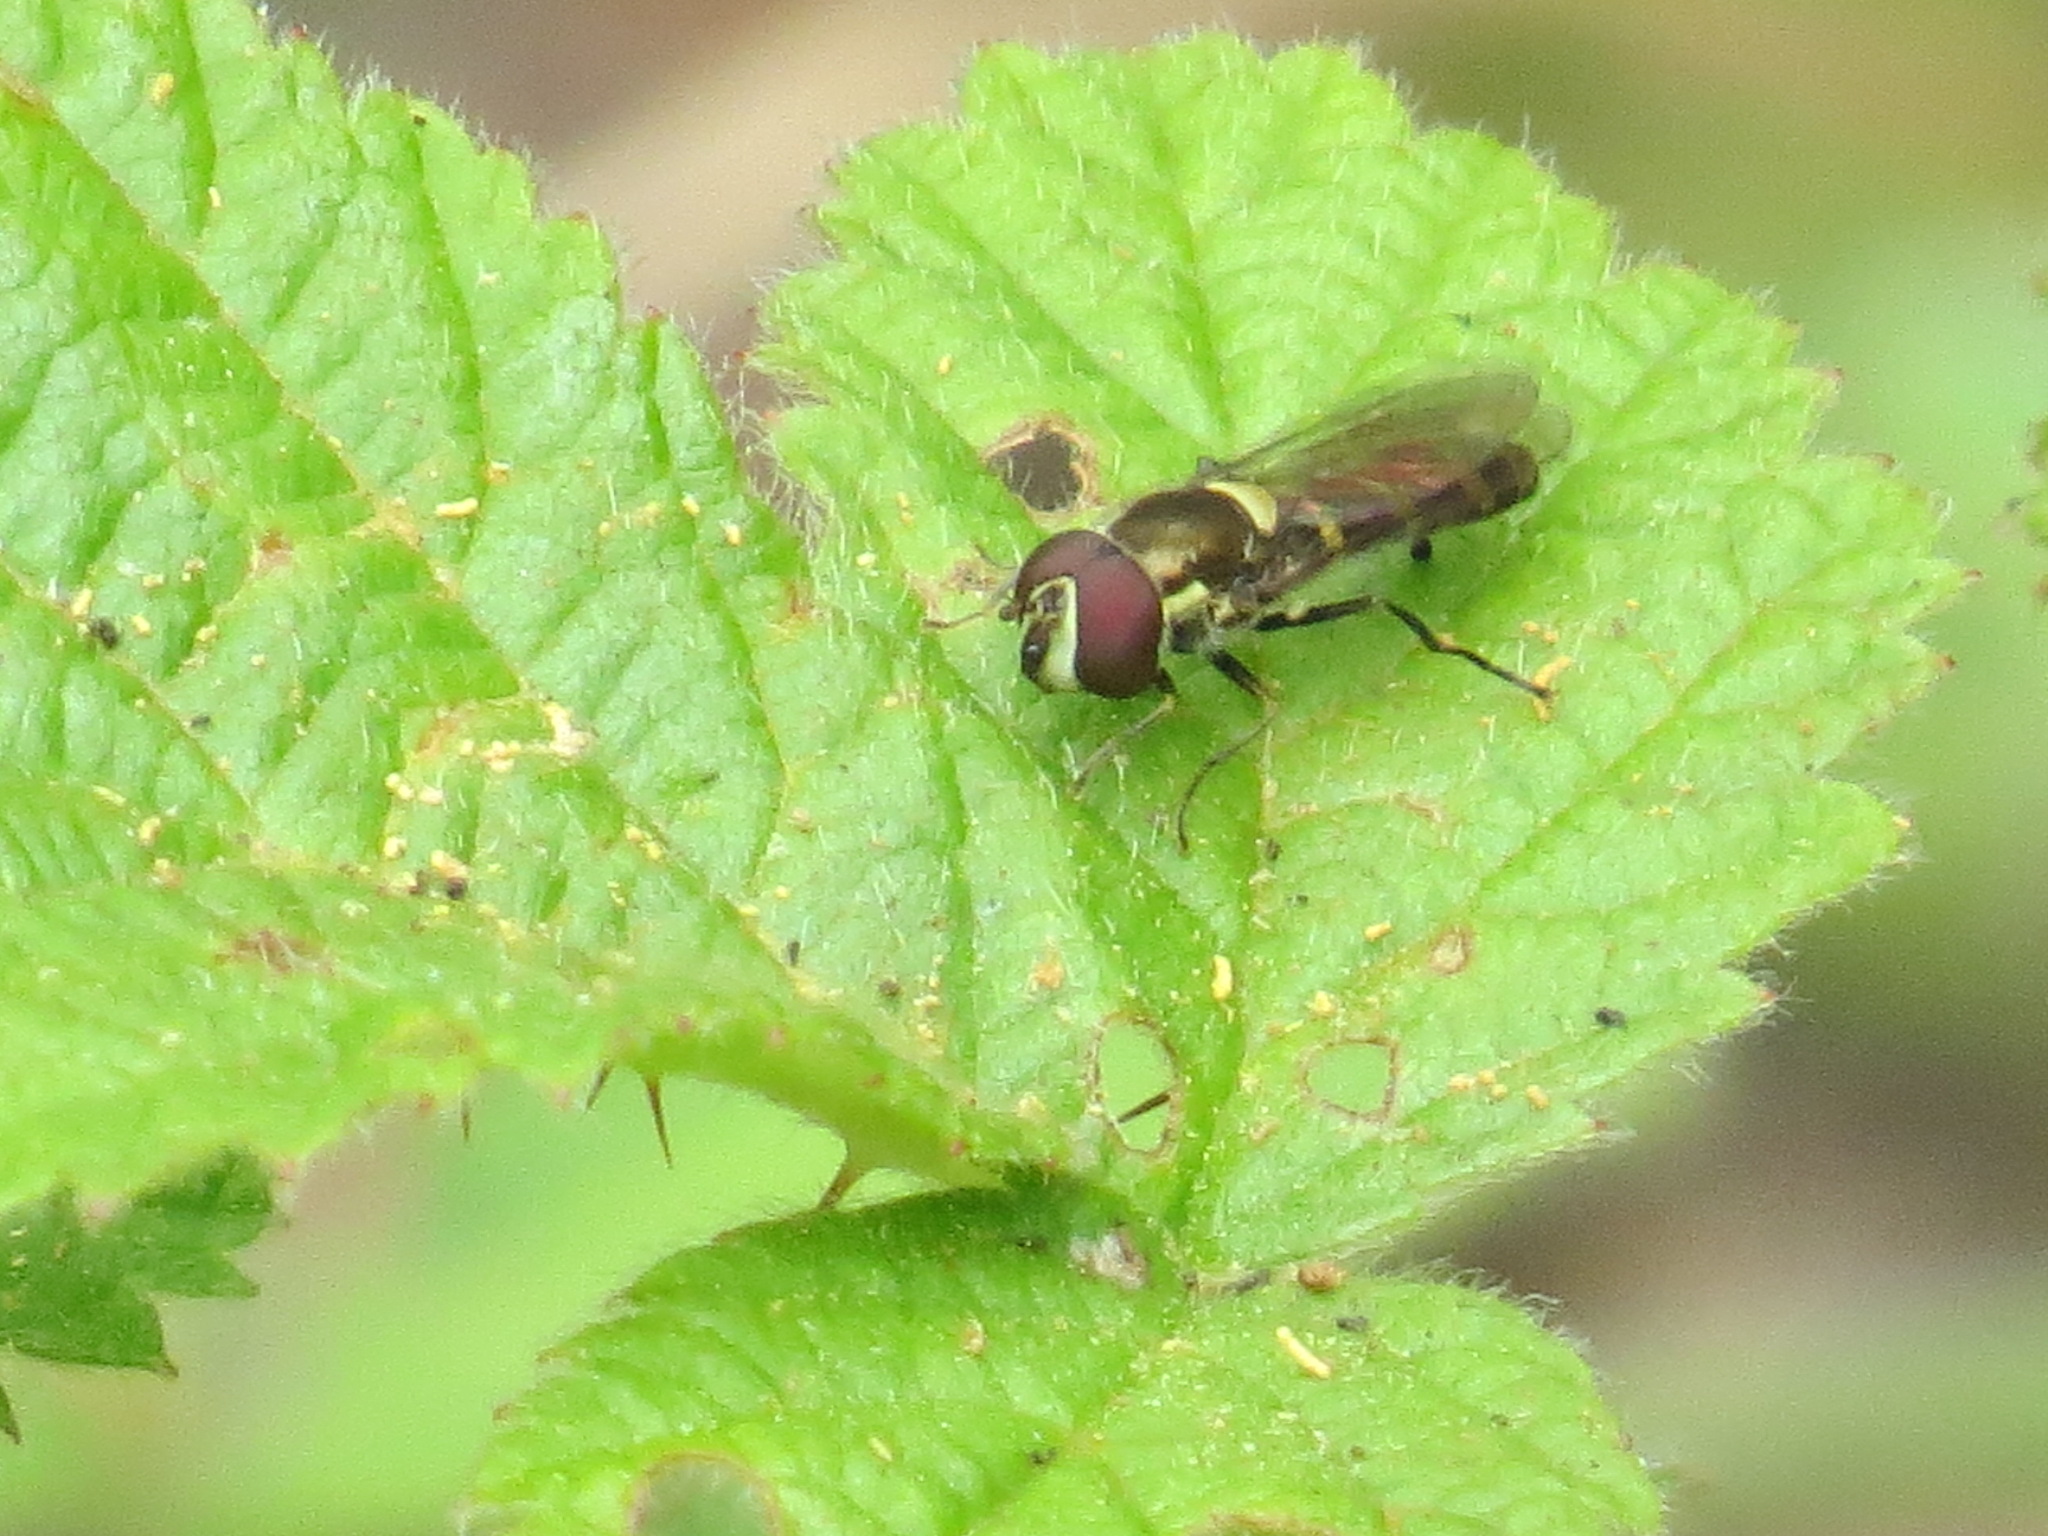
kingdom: Animalia
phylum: Arthropoda
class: Insecta
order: Diptera
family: Syrphidae
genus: Fazia
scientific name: Fazia micrura
